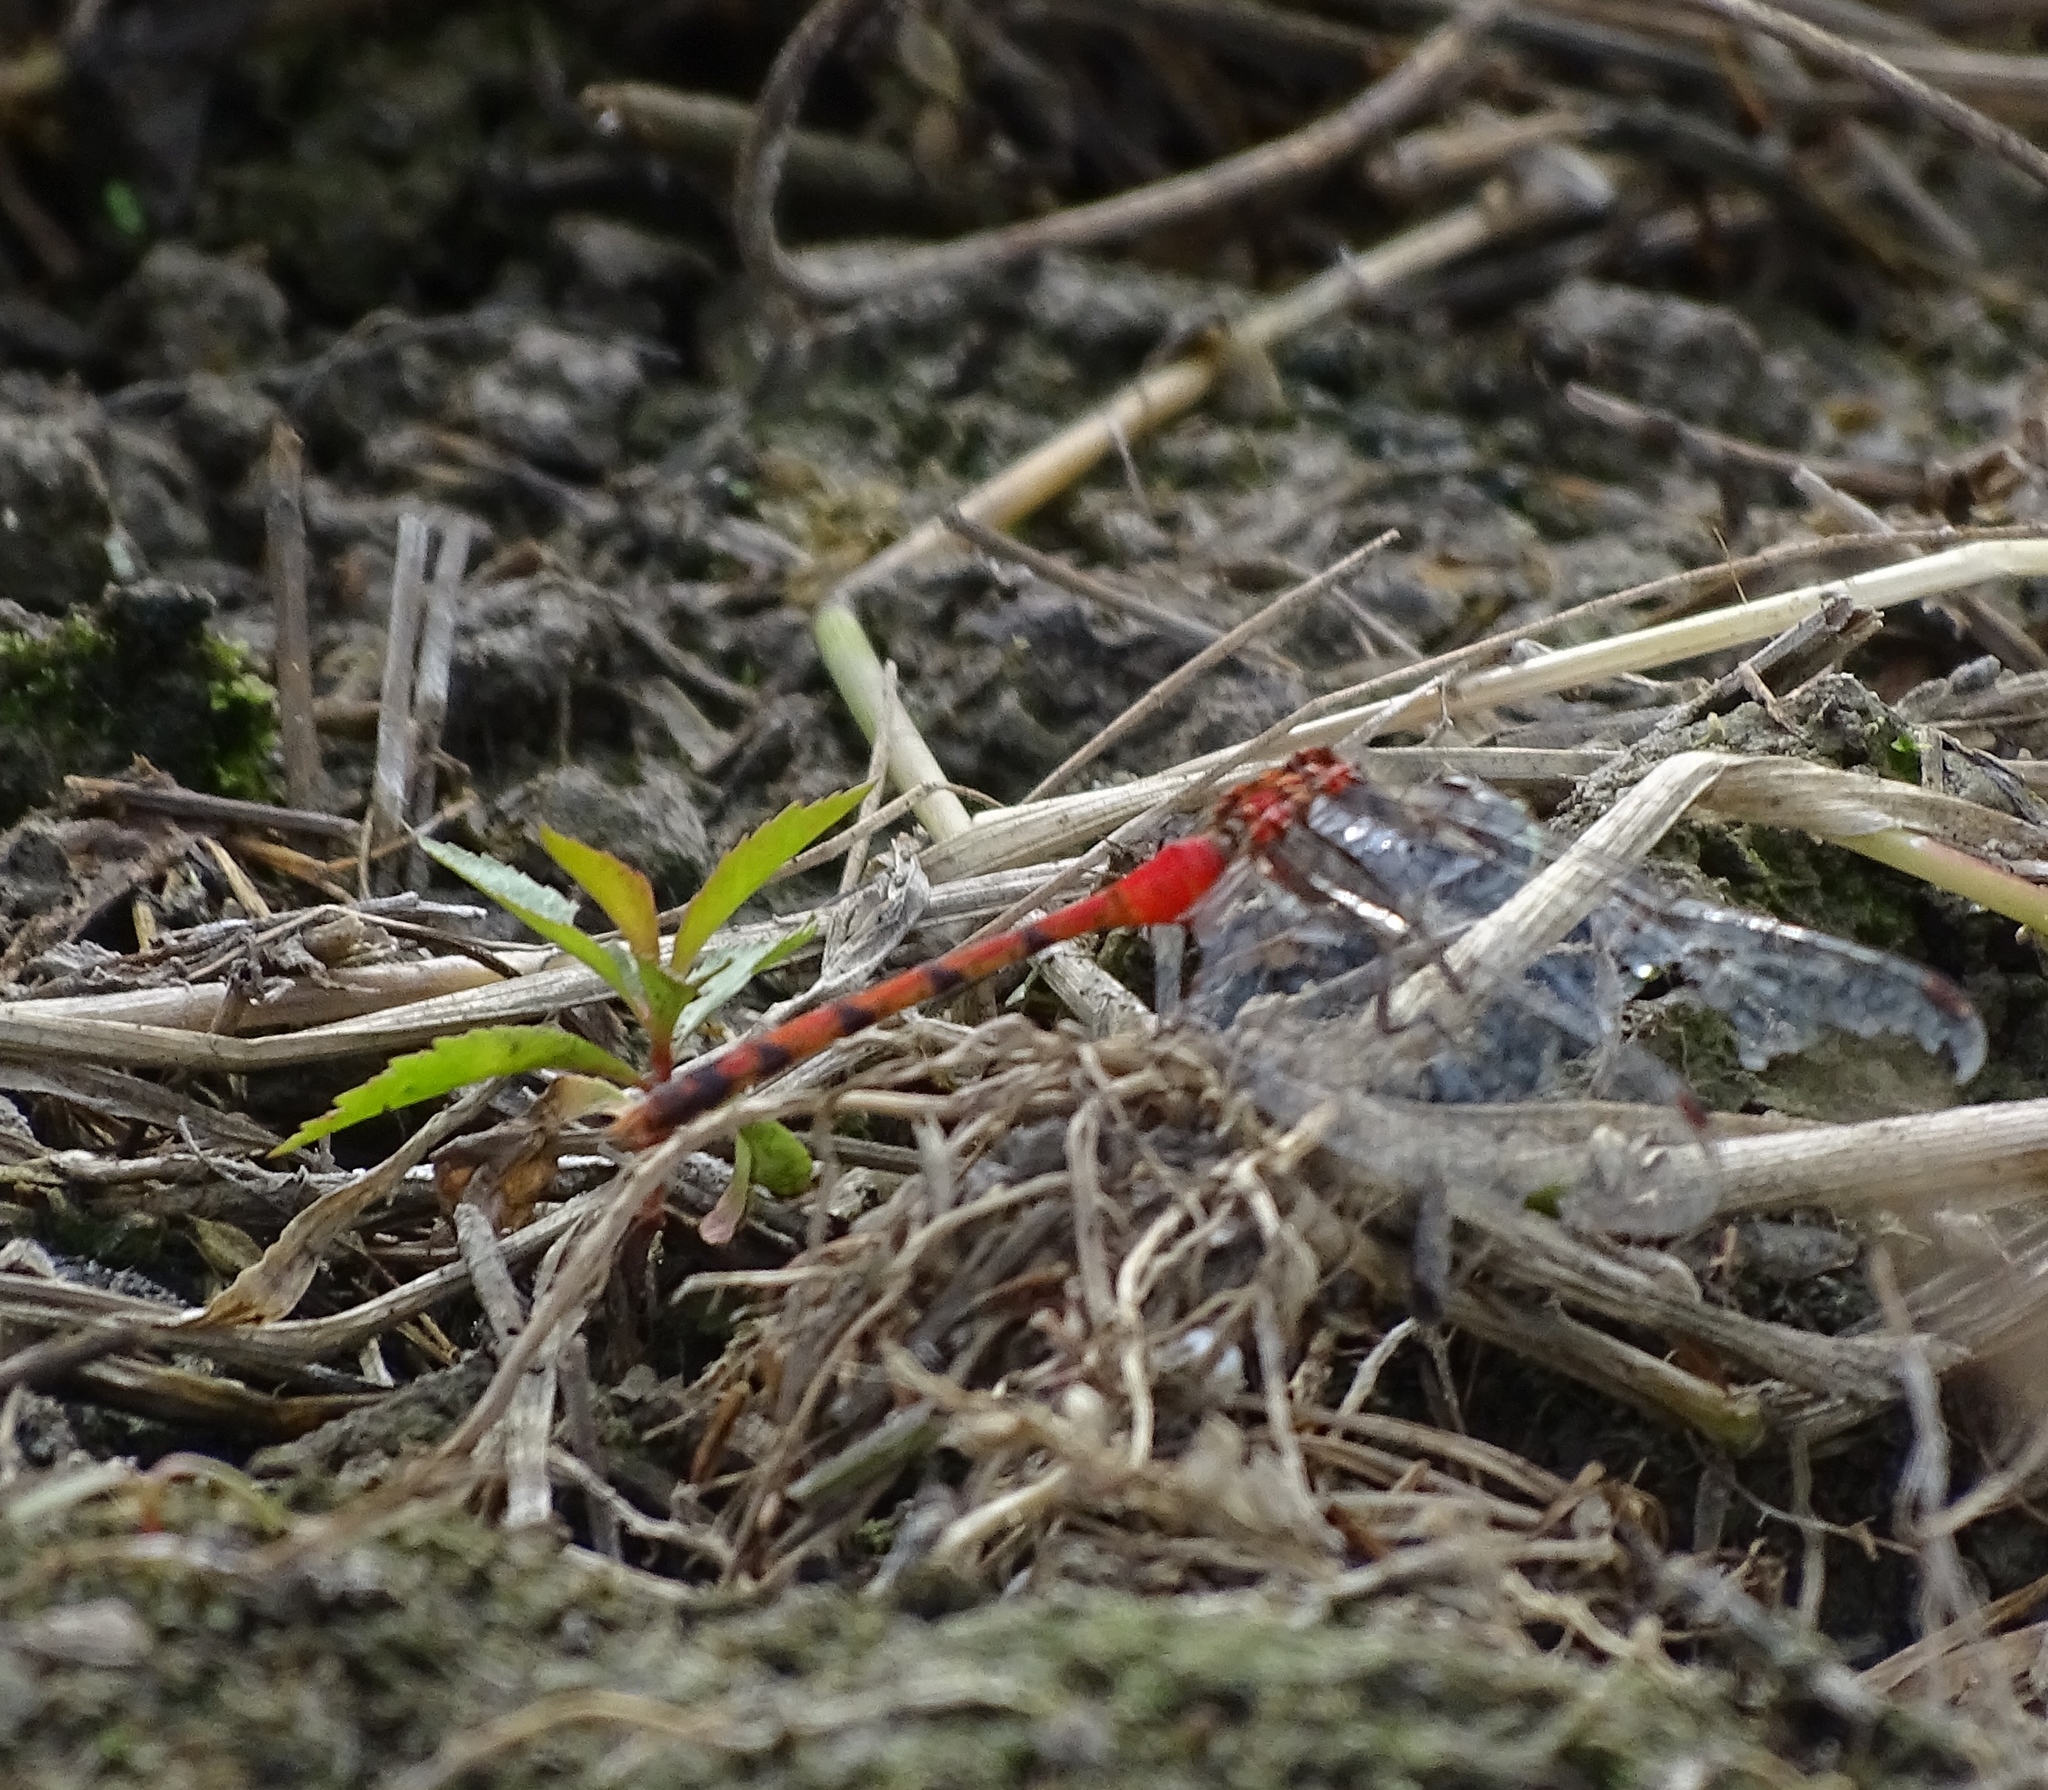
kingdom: Animalia
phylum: Arthropoda
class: Insecta
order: Odonata
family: Libellulidae
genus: Sympetrum
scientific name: Sympetrum ambiguum
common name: Blue-faced meadowhawk
